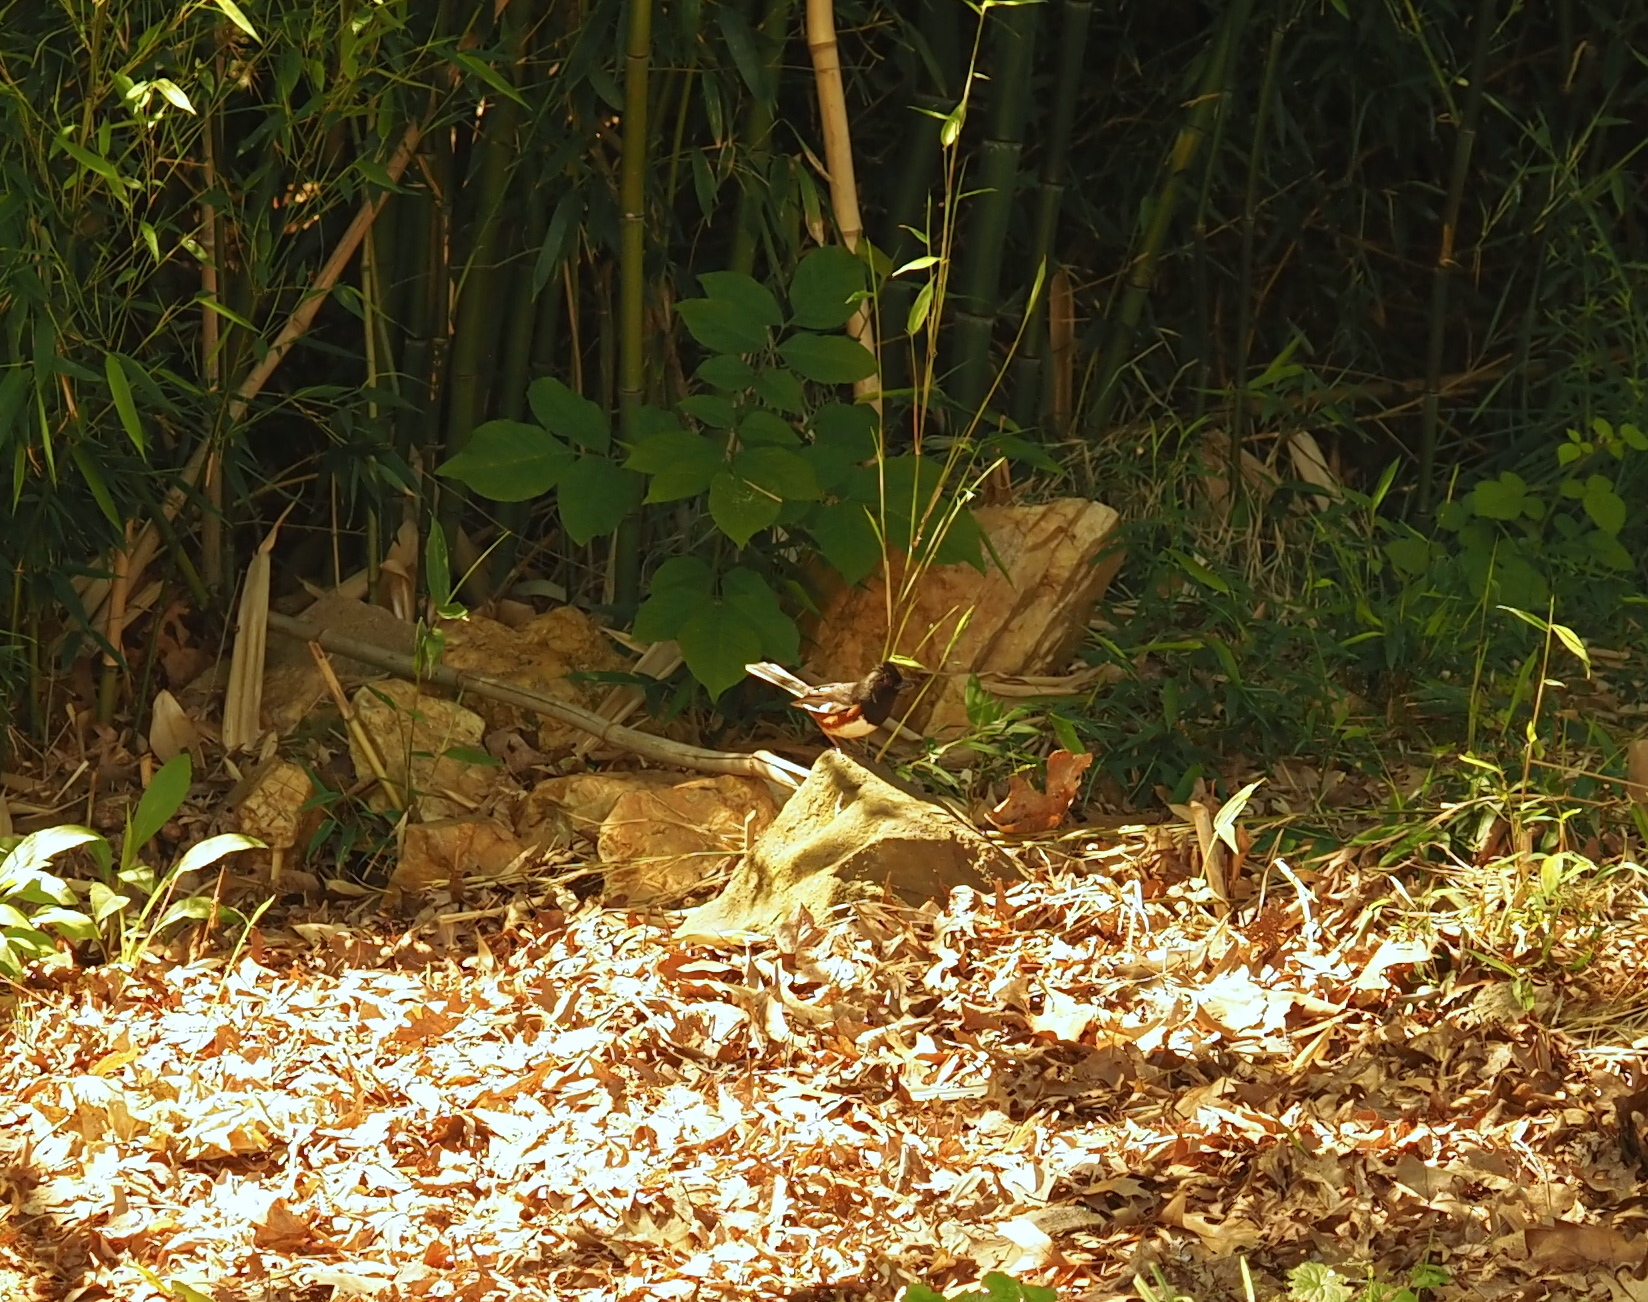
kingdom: Animalia
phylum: Chordata
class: Aves
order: Passeriformes
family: Passerellidae
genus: Pipilo
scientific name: Pipilo erythrophthalmus
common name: Eastern towhee
